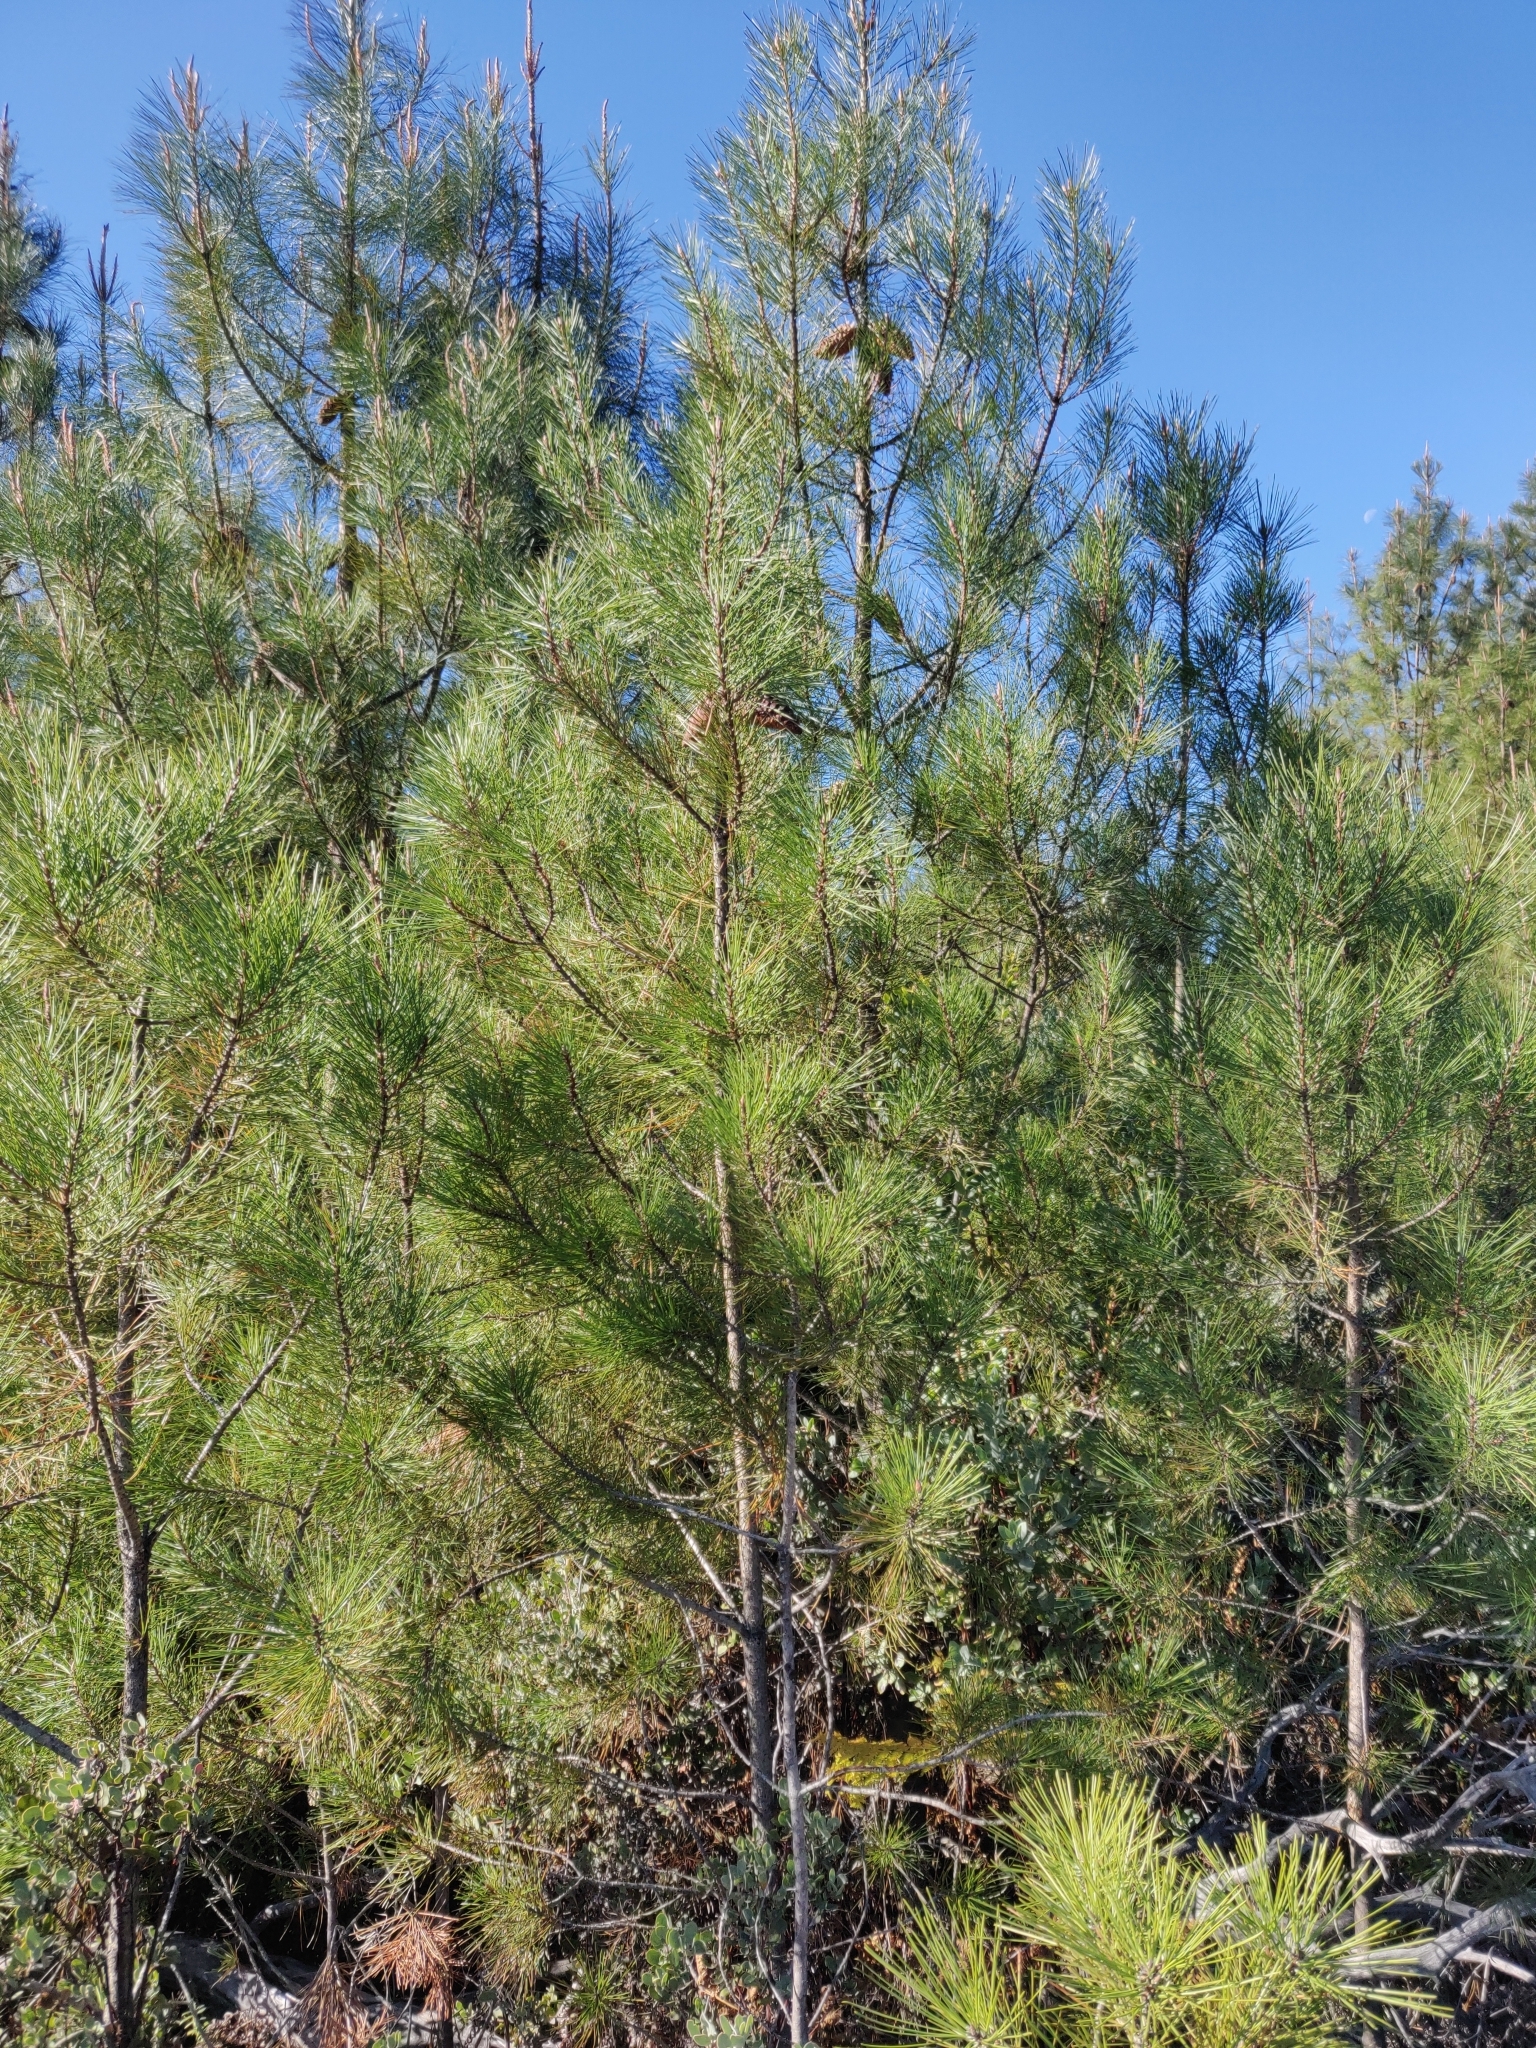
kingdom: Plantae
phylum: Tracheophyta
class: Pinopsida
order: Pinales
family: Pinaceae
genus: Pinus
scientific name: Pinus attenuata
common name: Knobcone pine
